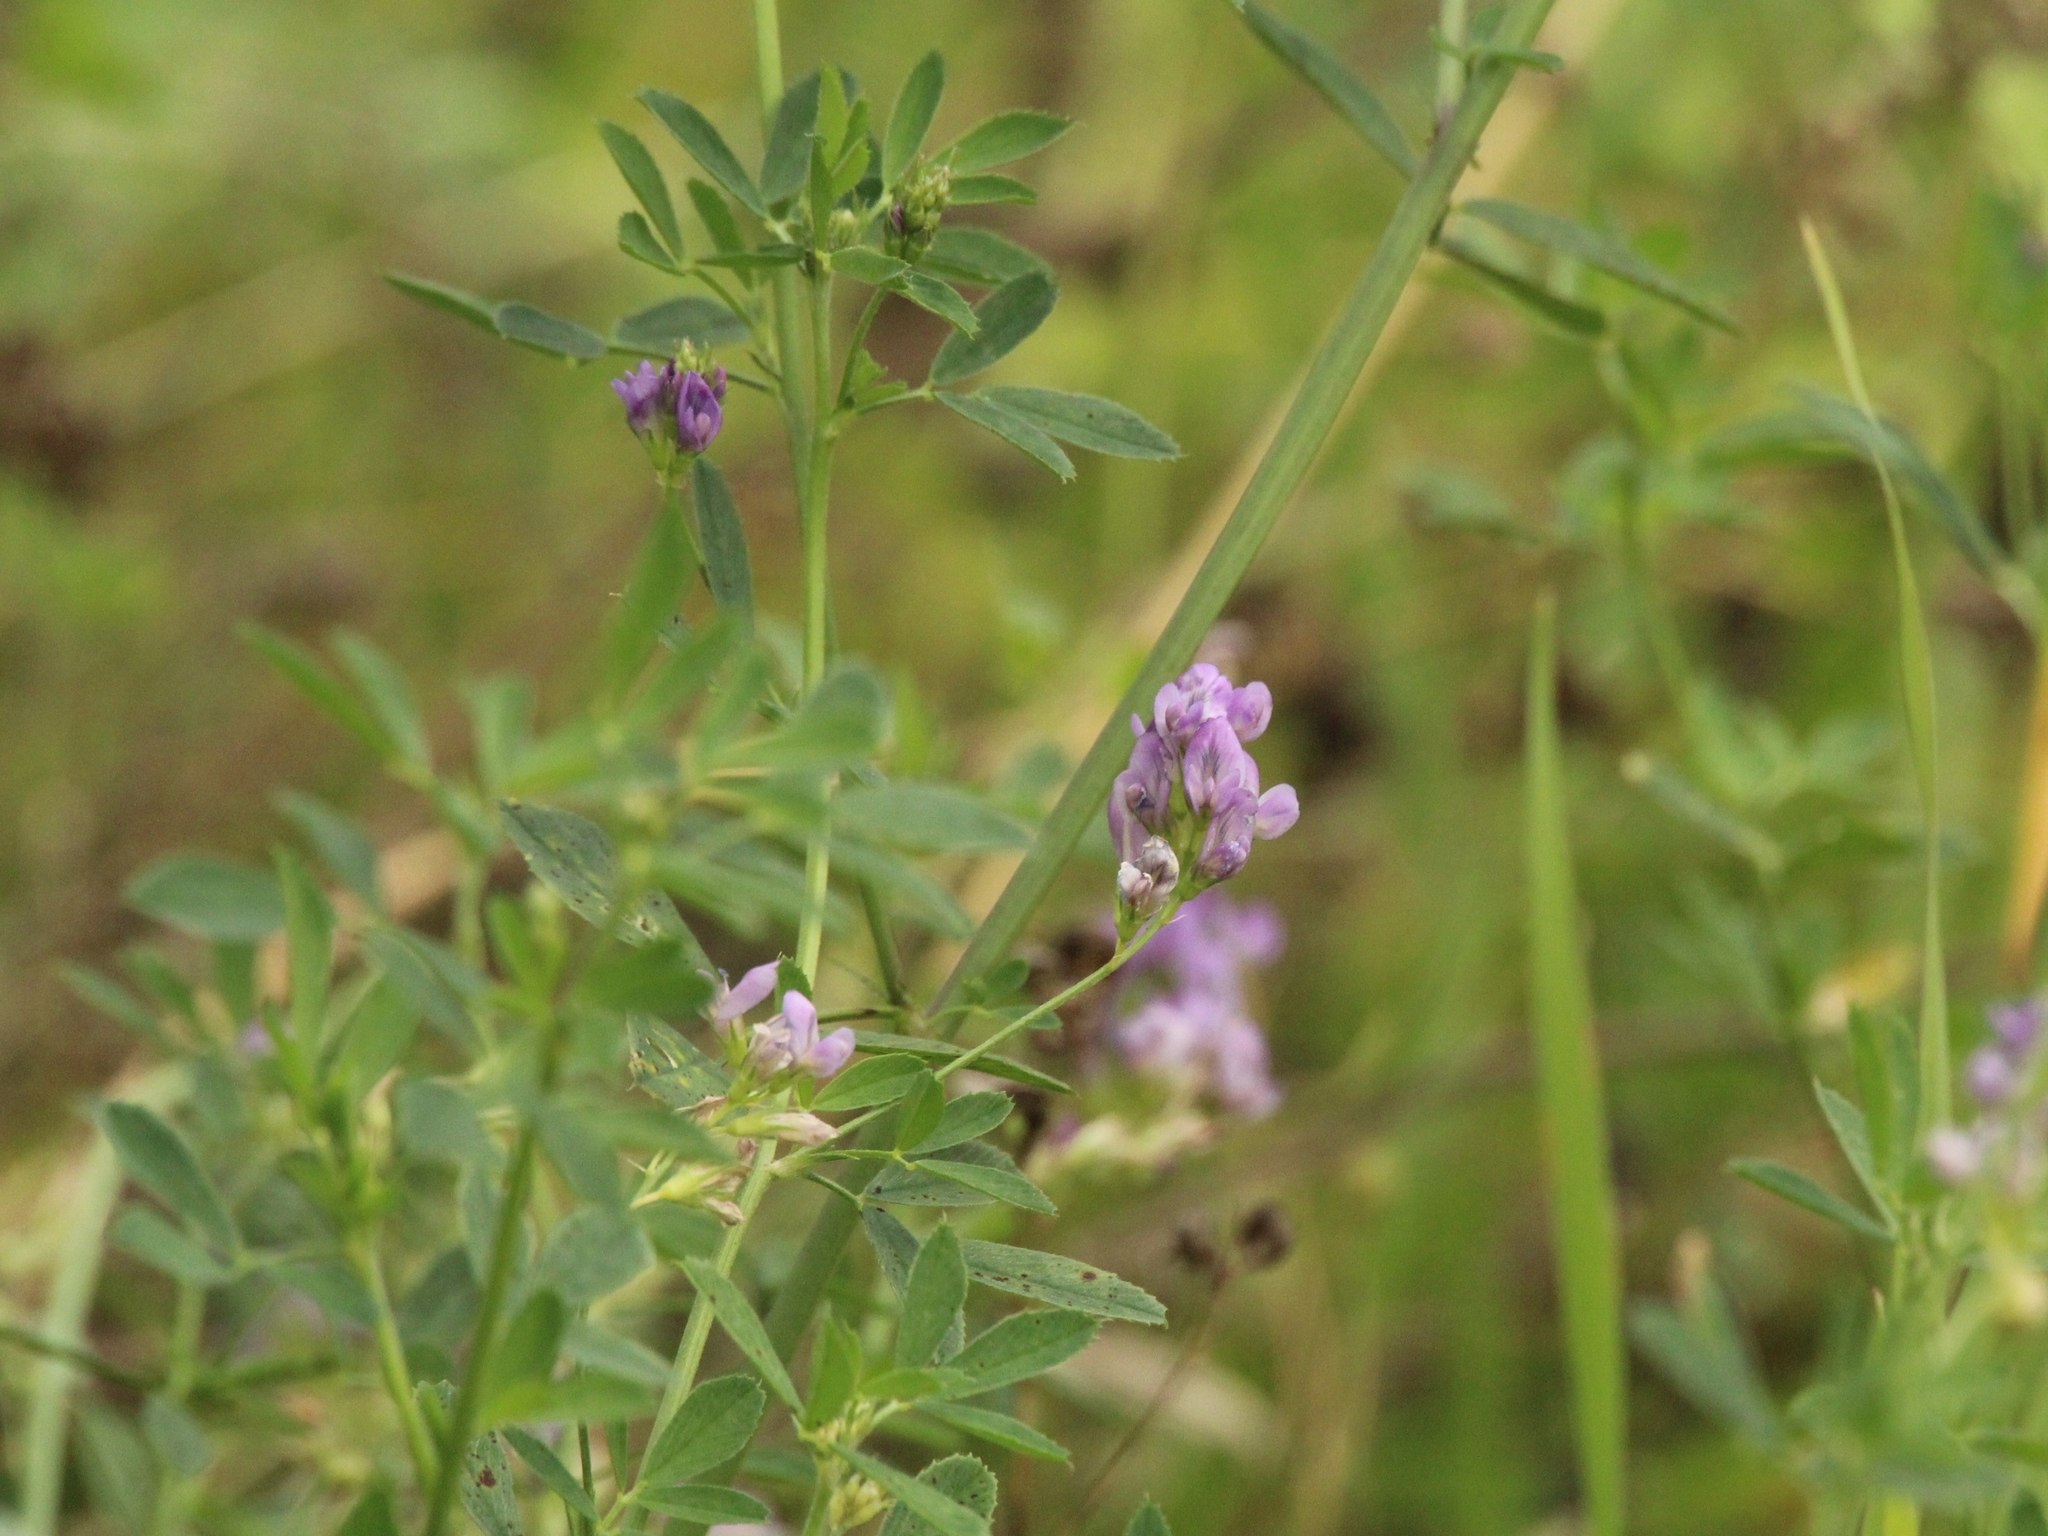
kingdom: Plantae
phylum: Tracheophyta
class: Magnoliopsida
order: Fabales
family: Fabaceae
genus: Medicago
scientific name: Medicago sativa
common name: Alfalfa
